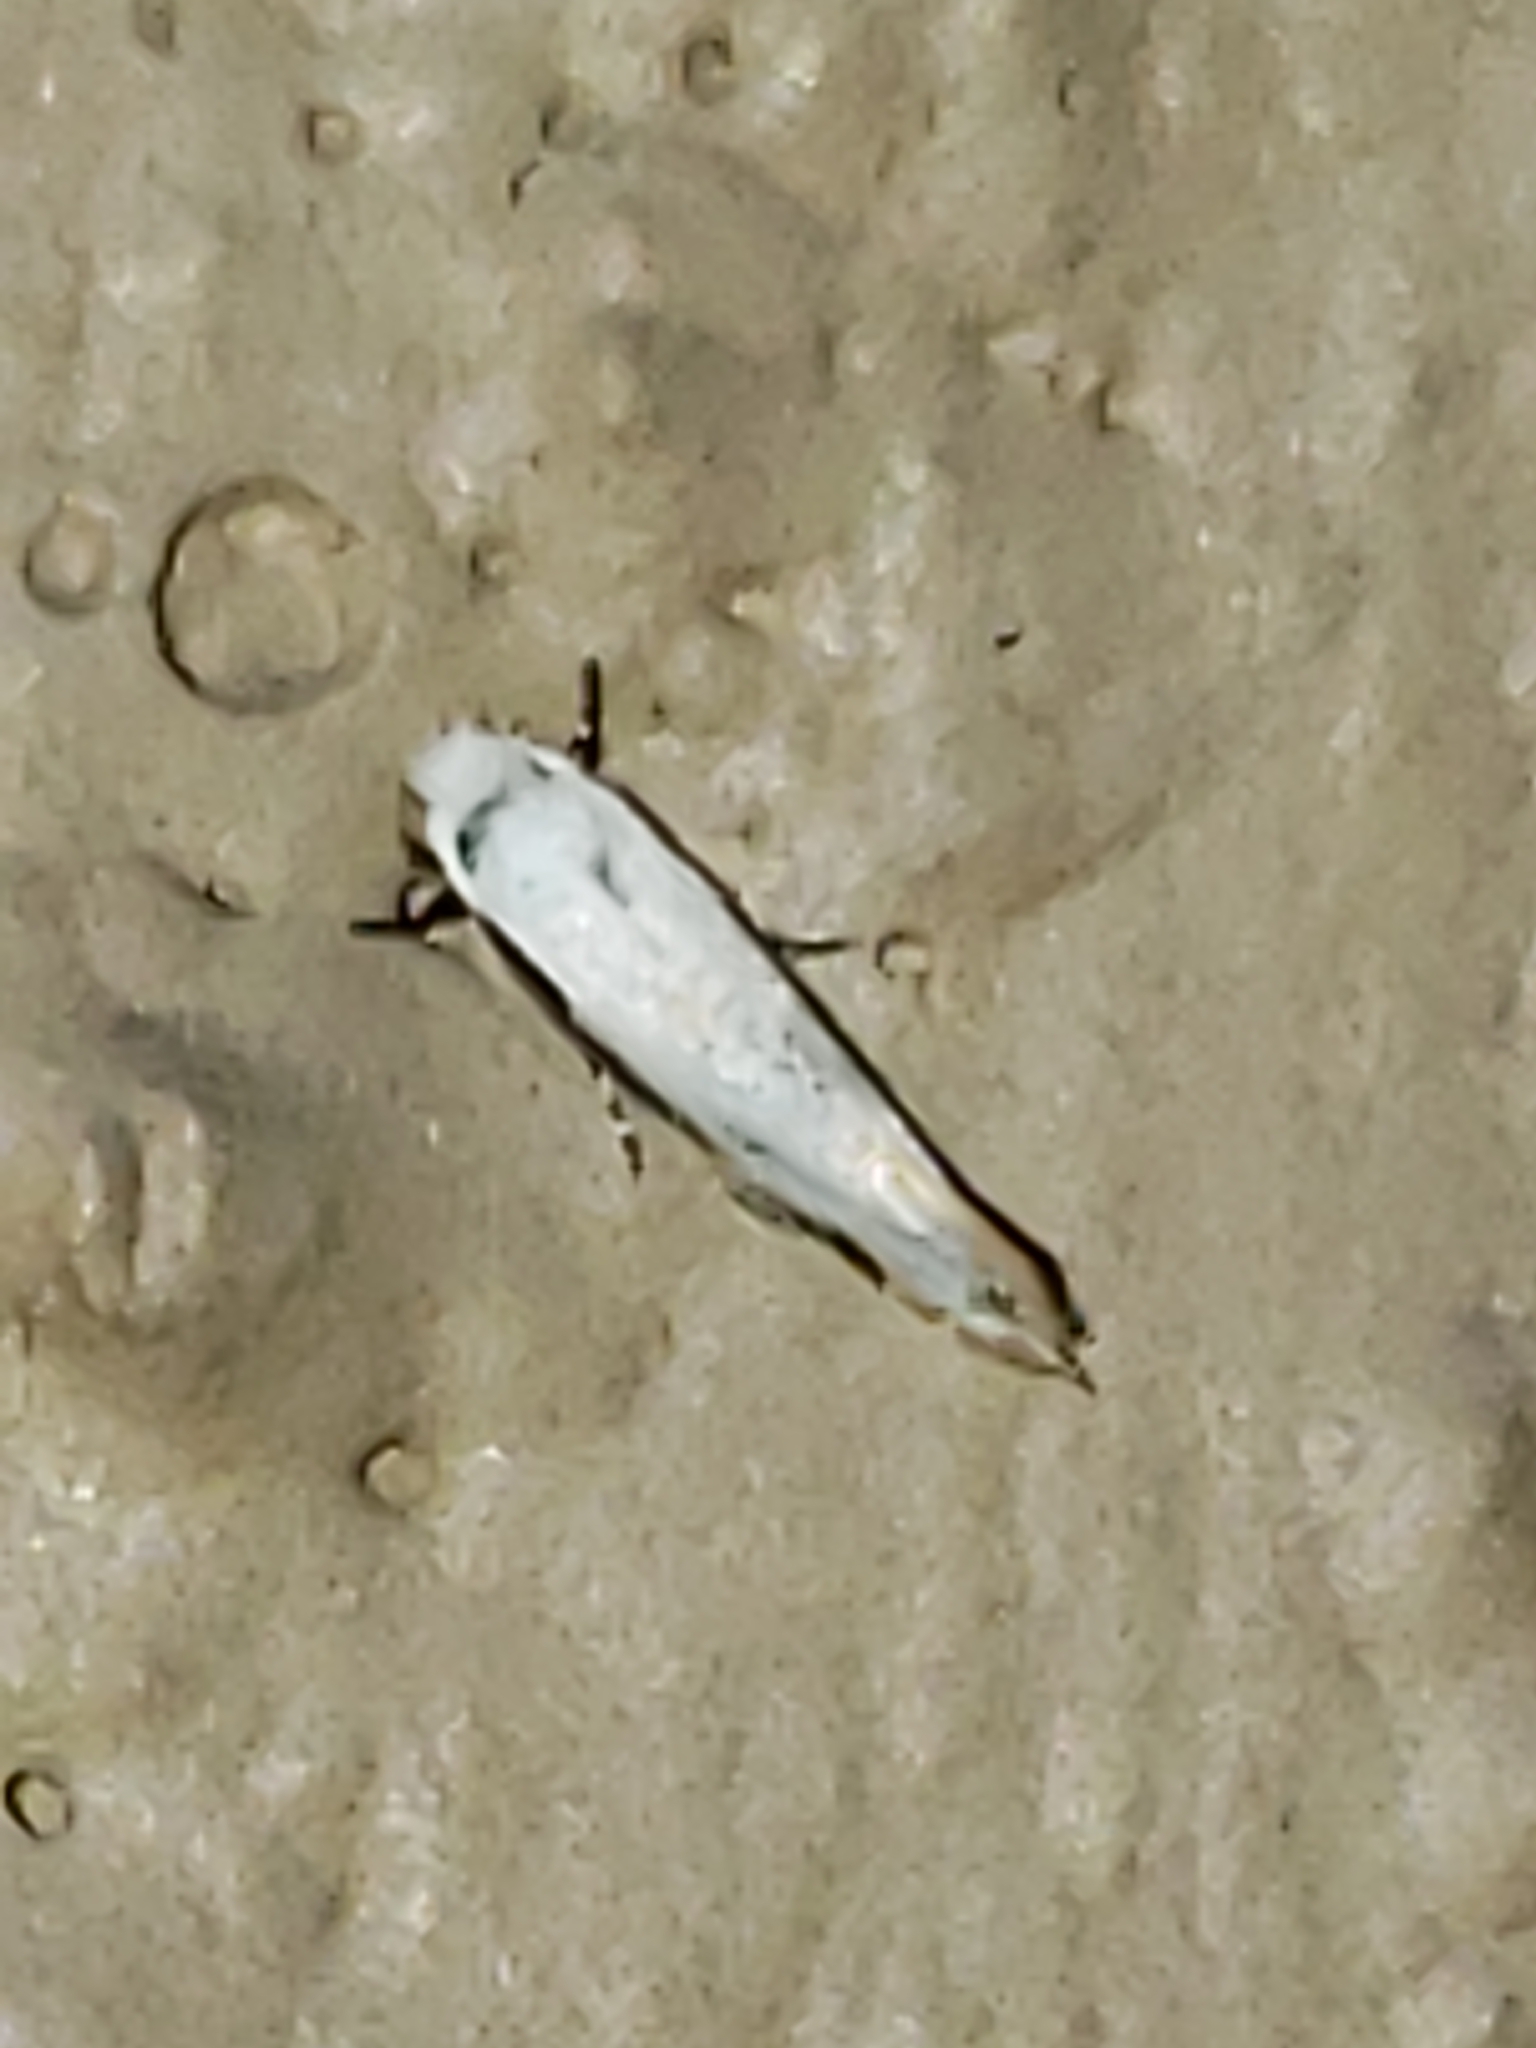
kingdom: Animalia
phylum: Arthropoda
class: Insecta
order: Lepidoptera
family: Meessiidae
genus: Mea
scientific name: Mea skinnerella
